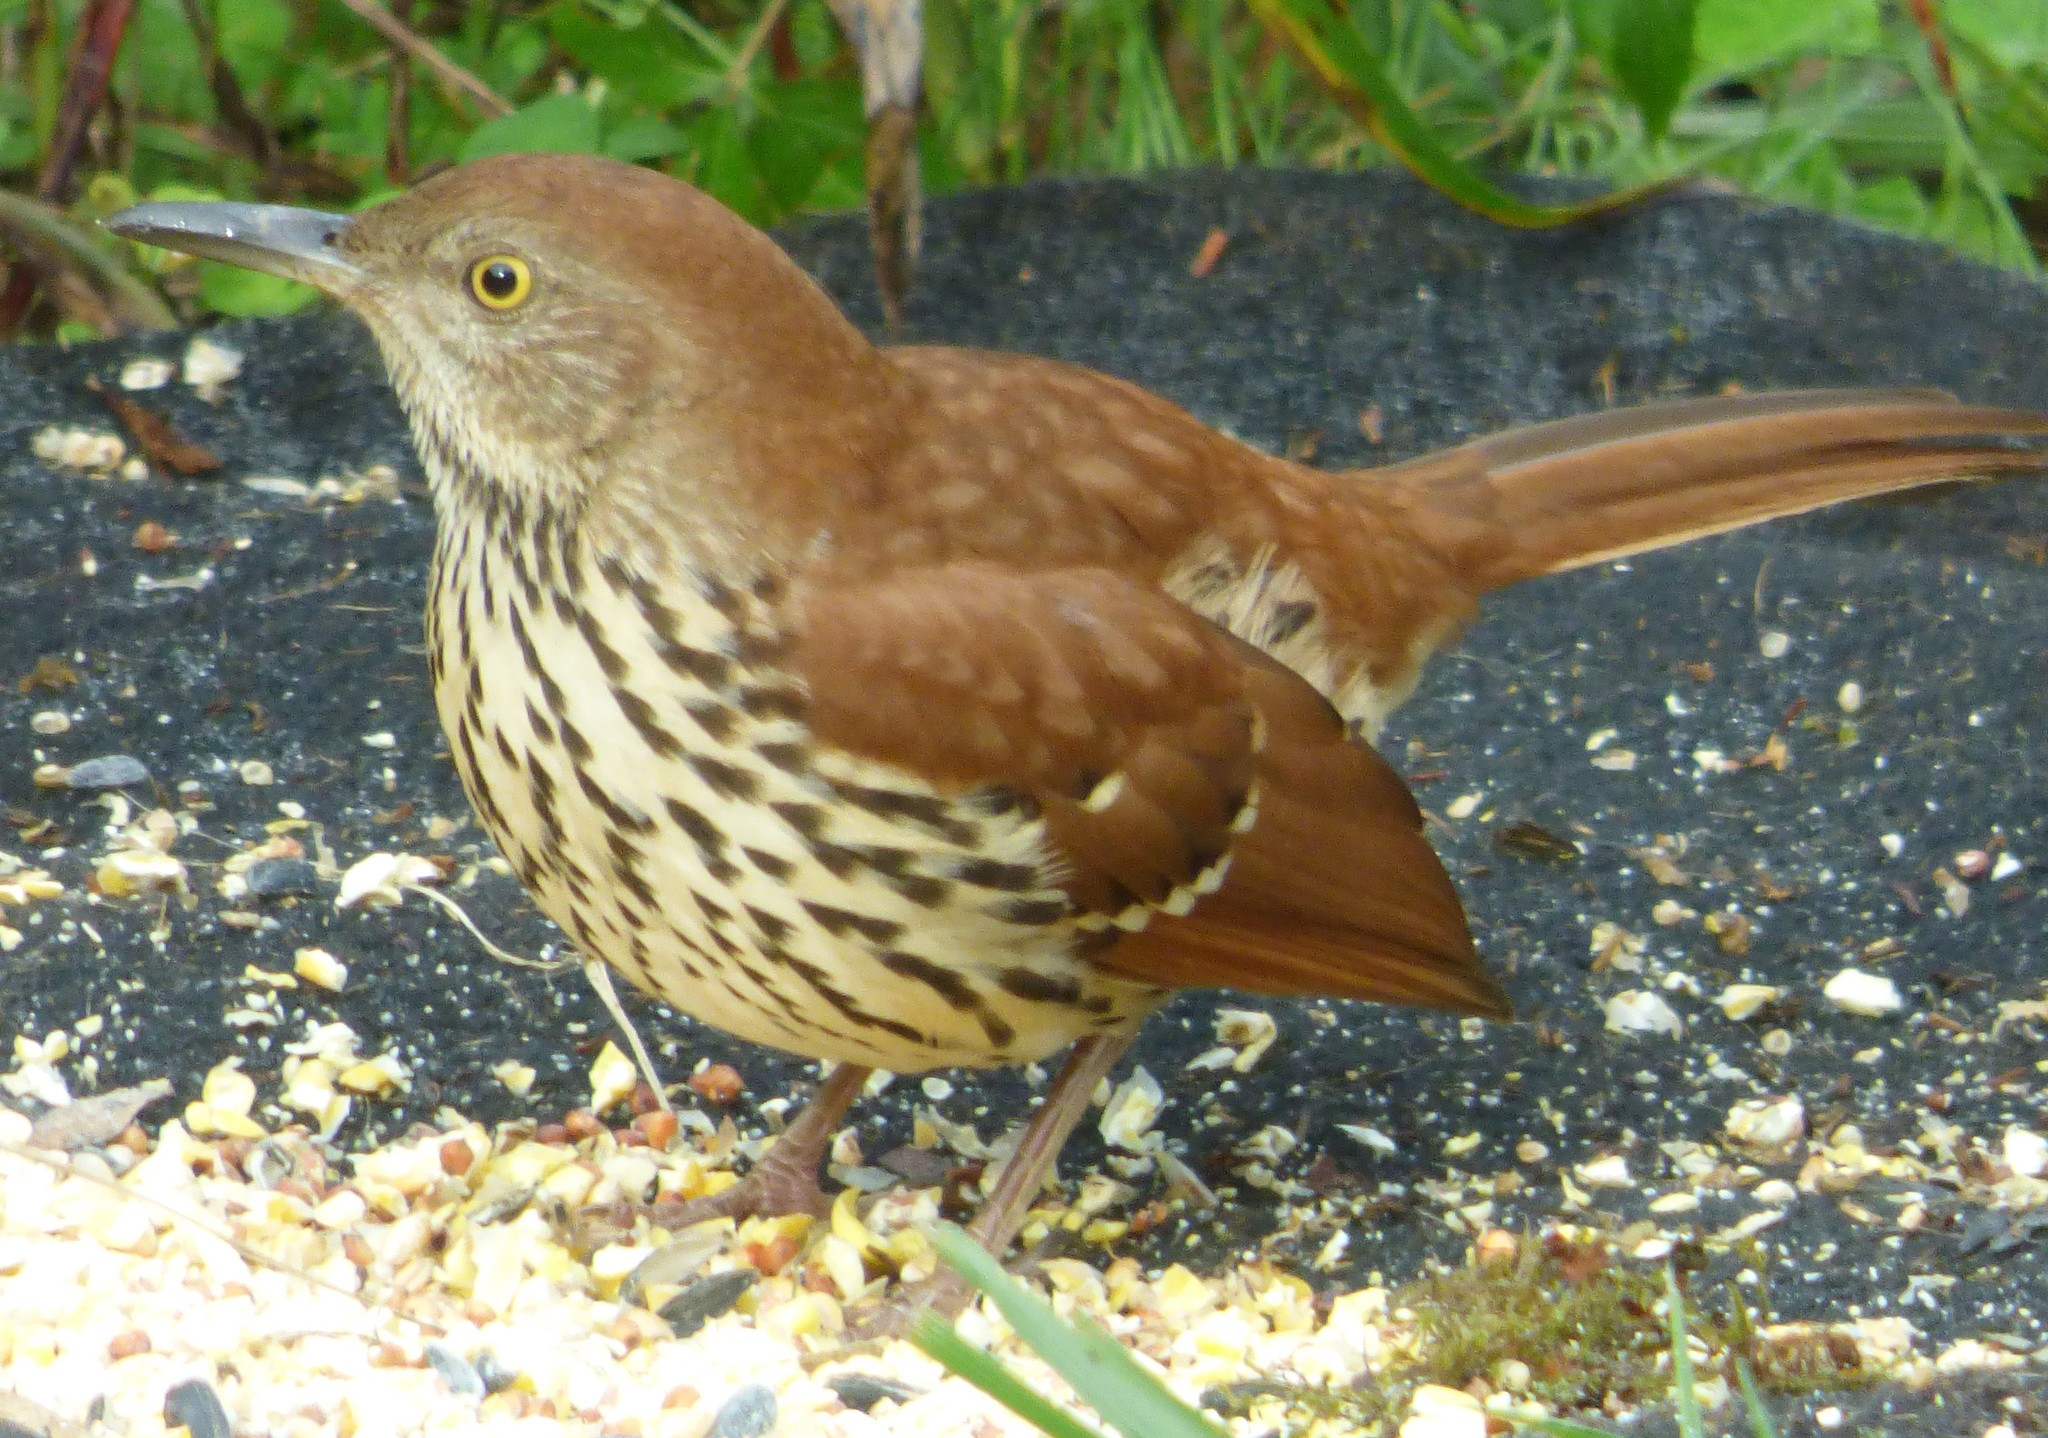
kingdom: Animalia
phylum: Chordata
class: Aves
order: Passeriformes
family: Mimidae
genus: Toxostoma
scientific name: Toxostoma rufum
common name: Brown thrasher
